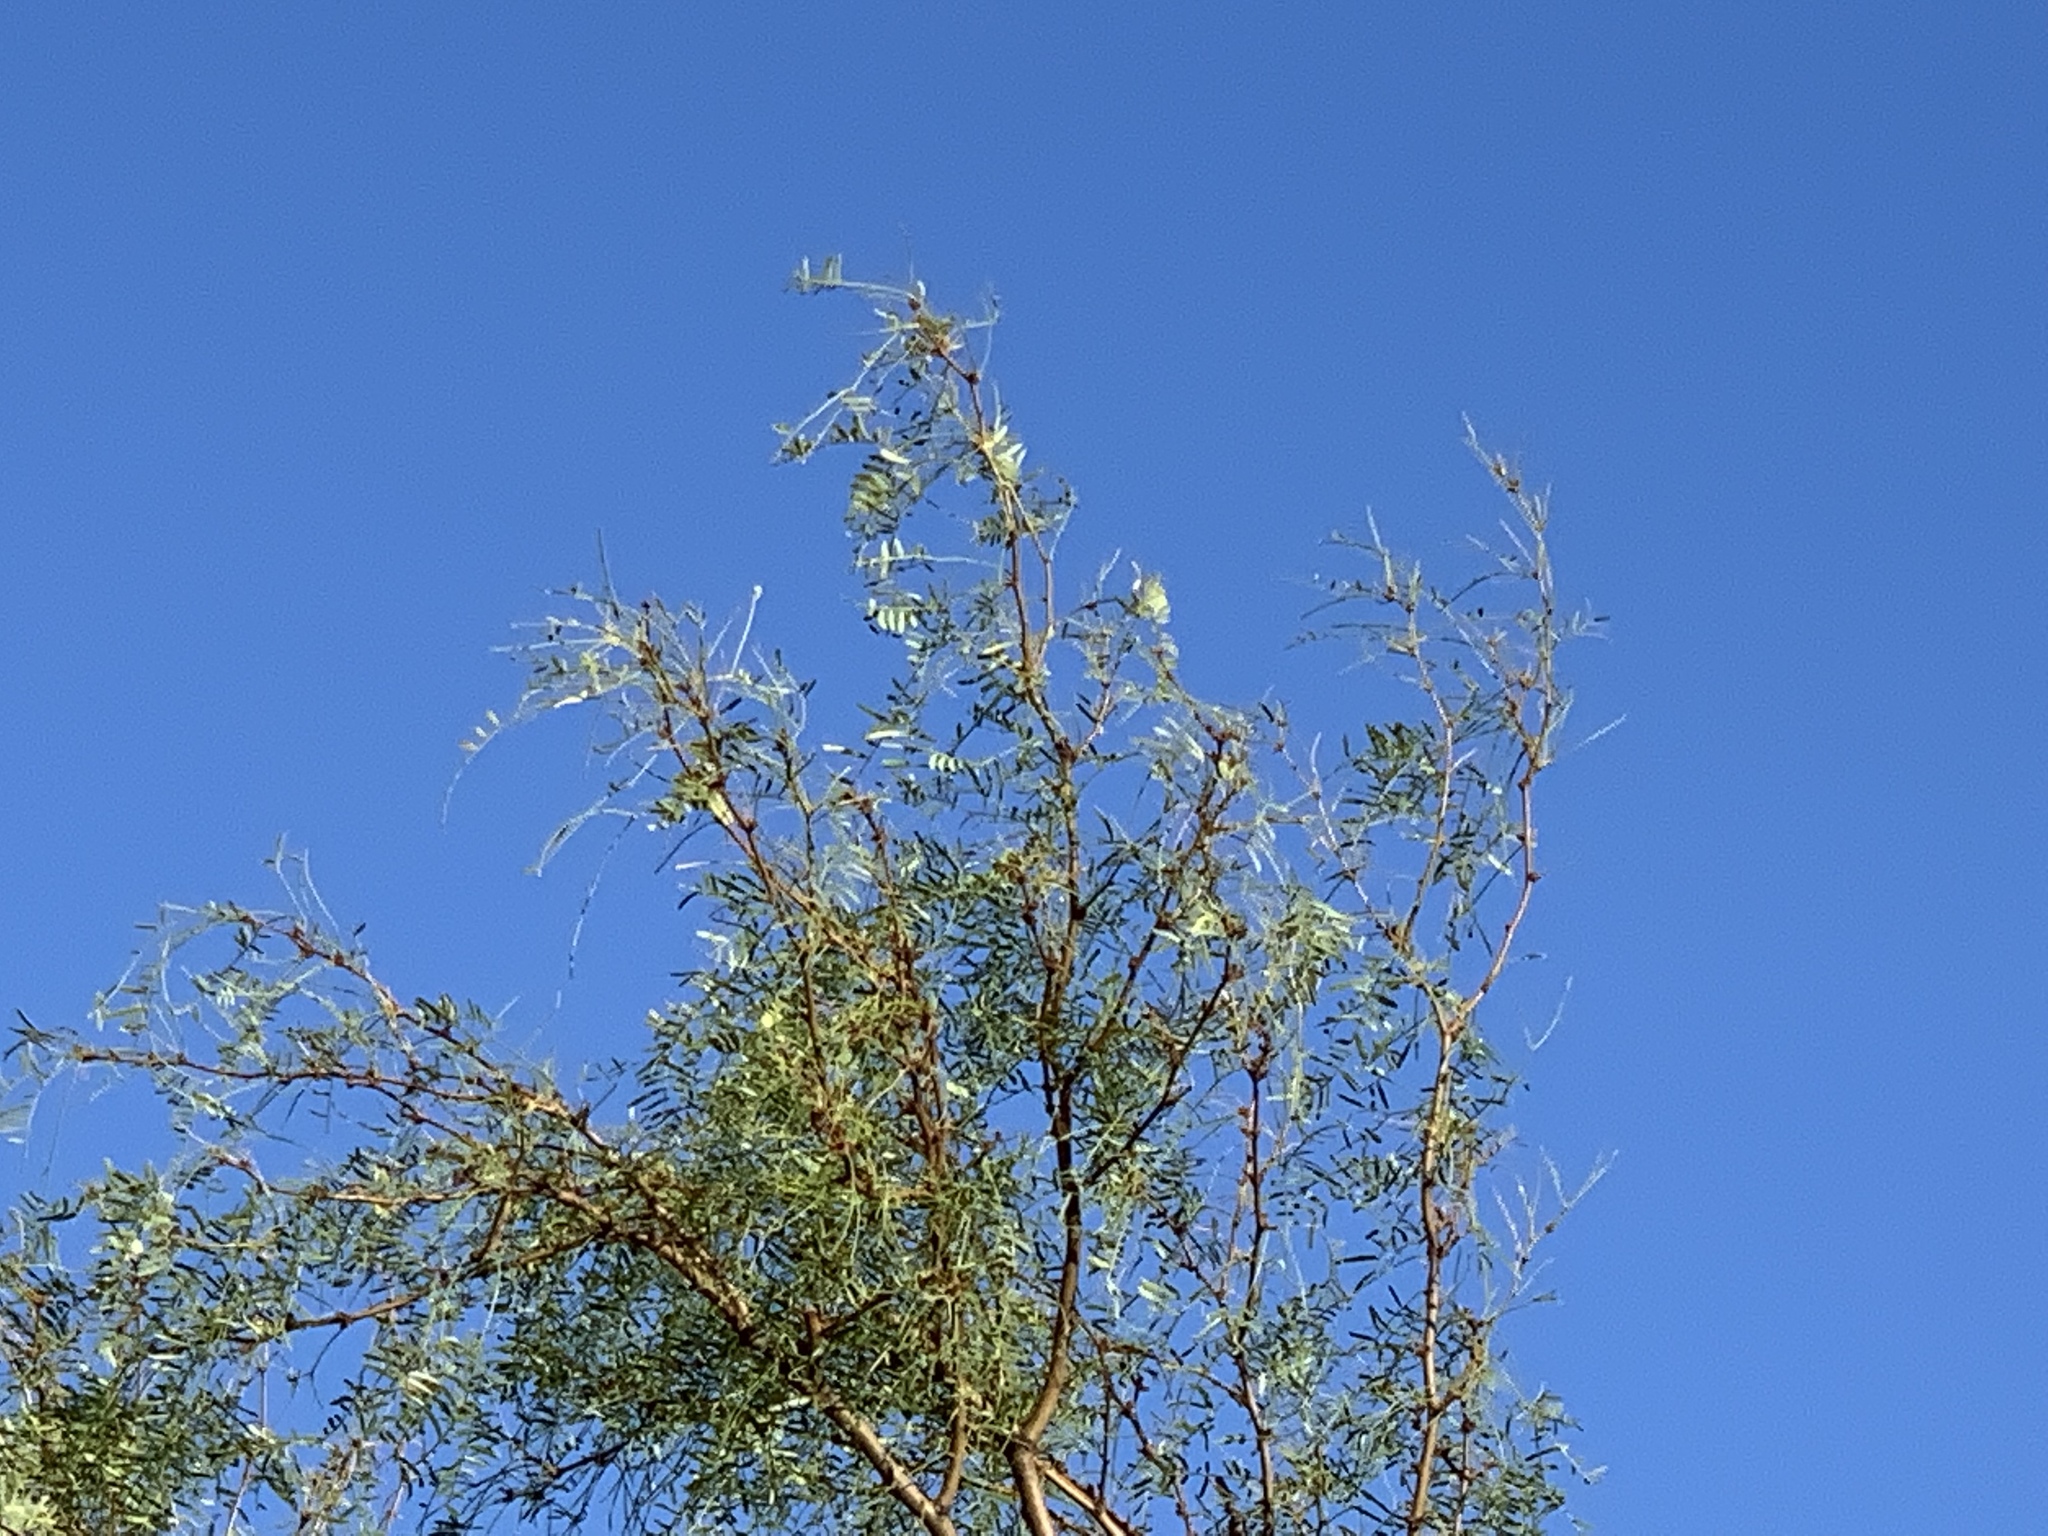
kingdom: Plantae
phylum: Tracheophyta
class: Magnoliopsida
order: Fabales
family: Fabaceae
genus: Prosopis
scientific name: Prosopis glandulosa
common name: Honey mesquite
